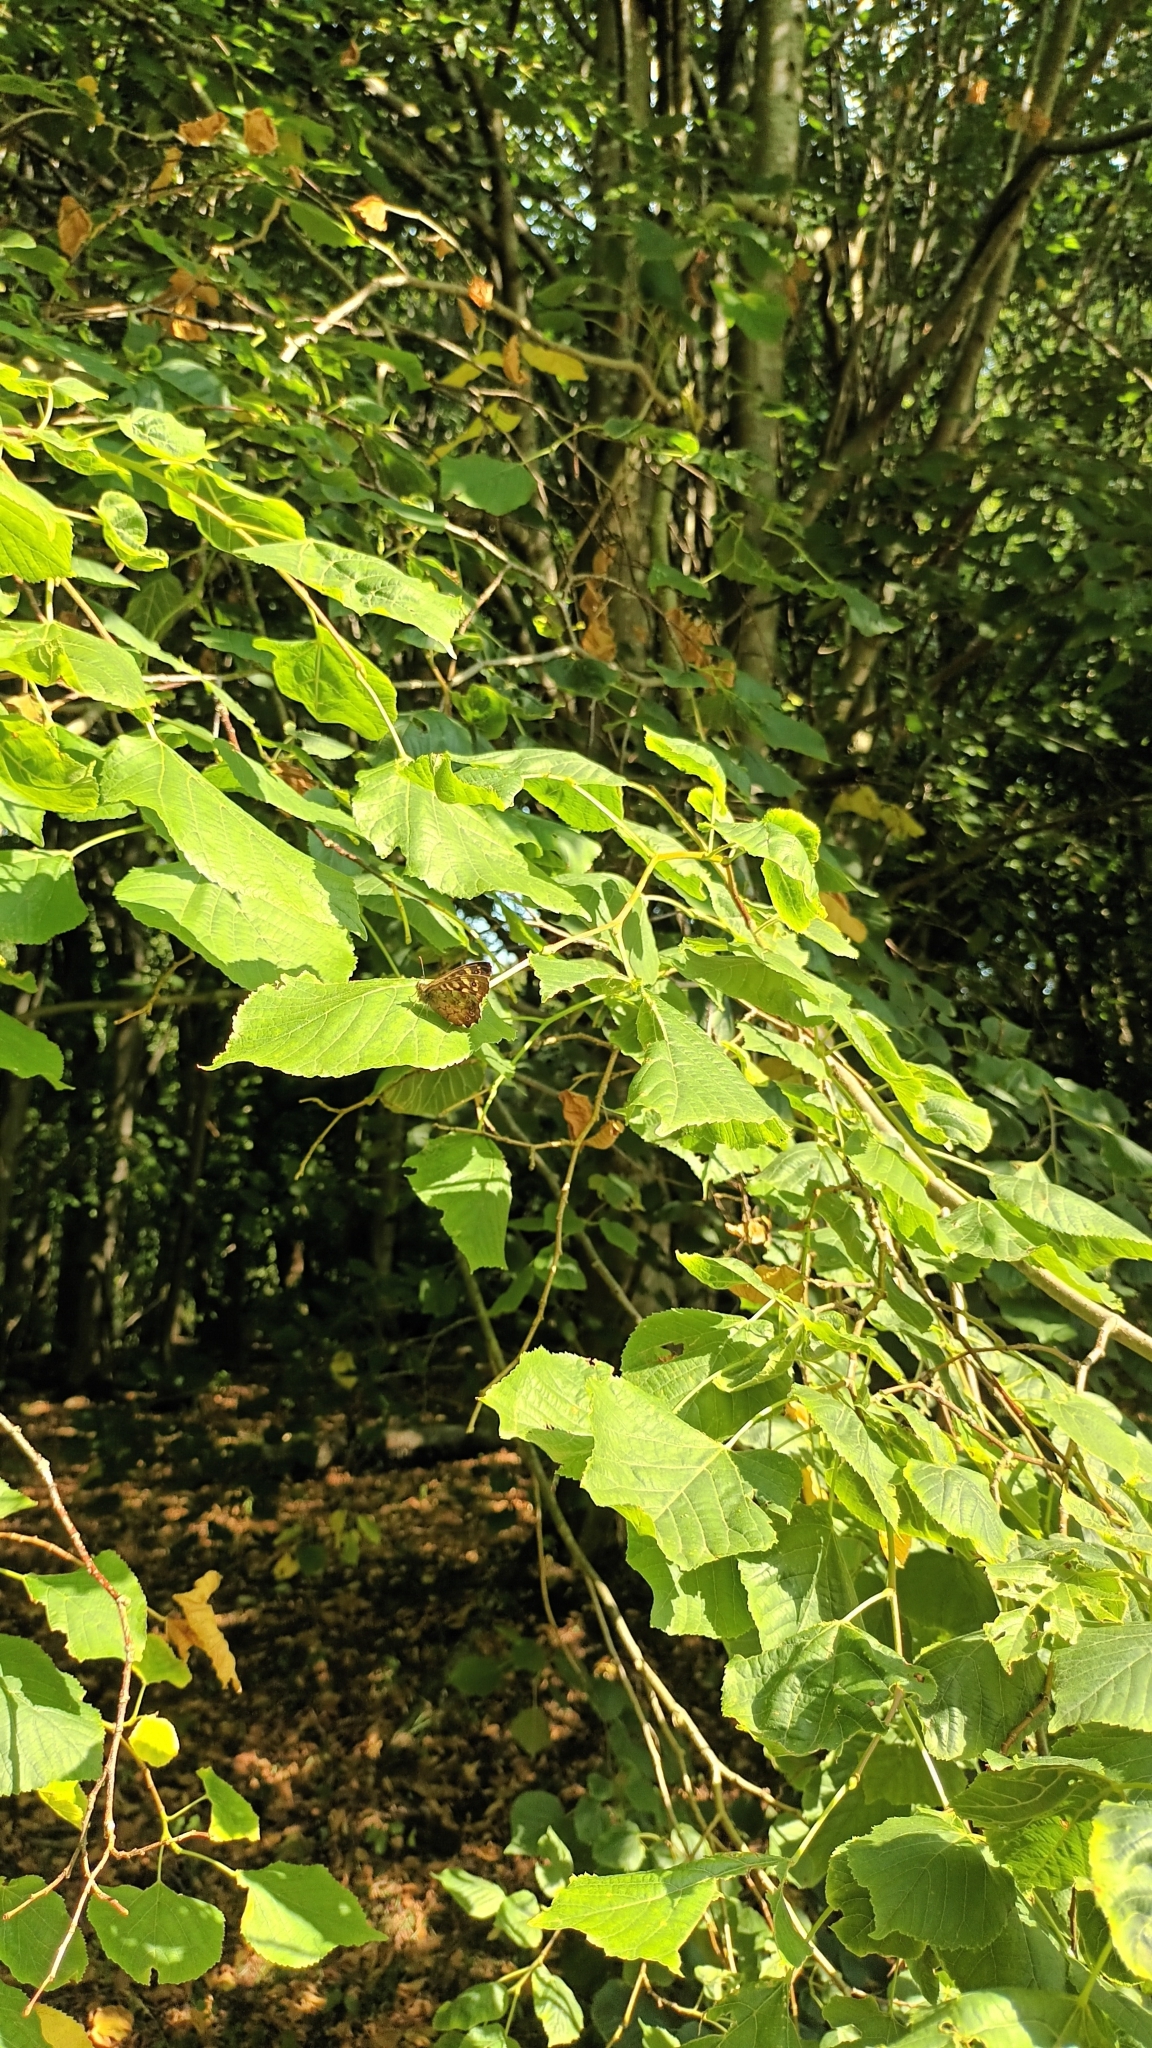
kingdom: Animalia
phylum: Arthropoda
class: Insecta
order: Lepidoptera
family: Nymphalidae
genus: Pararge
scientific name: Pararge aegeria
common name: Speckled wood
